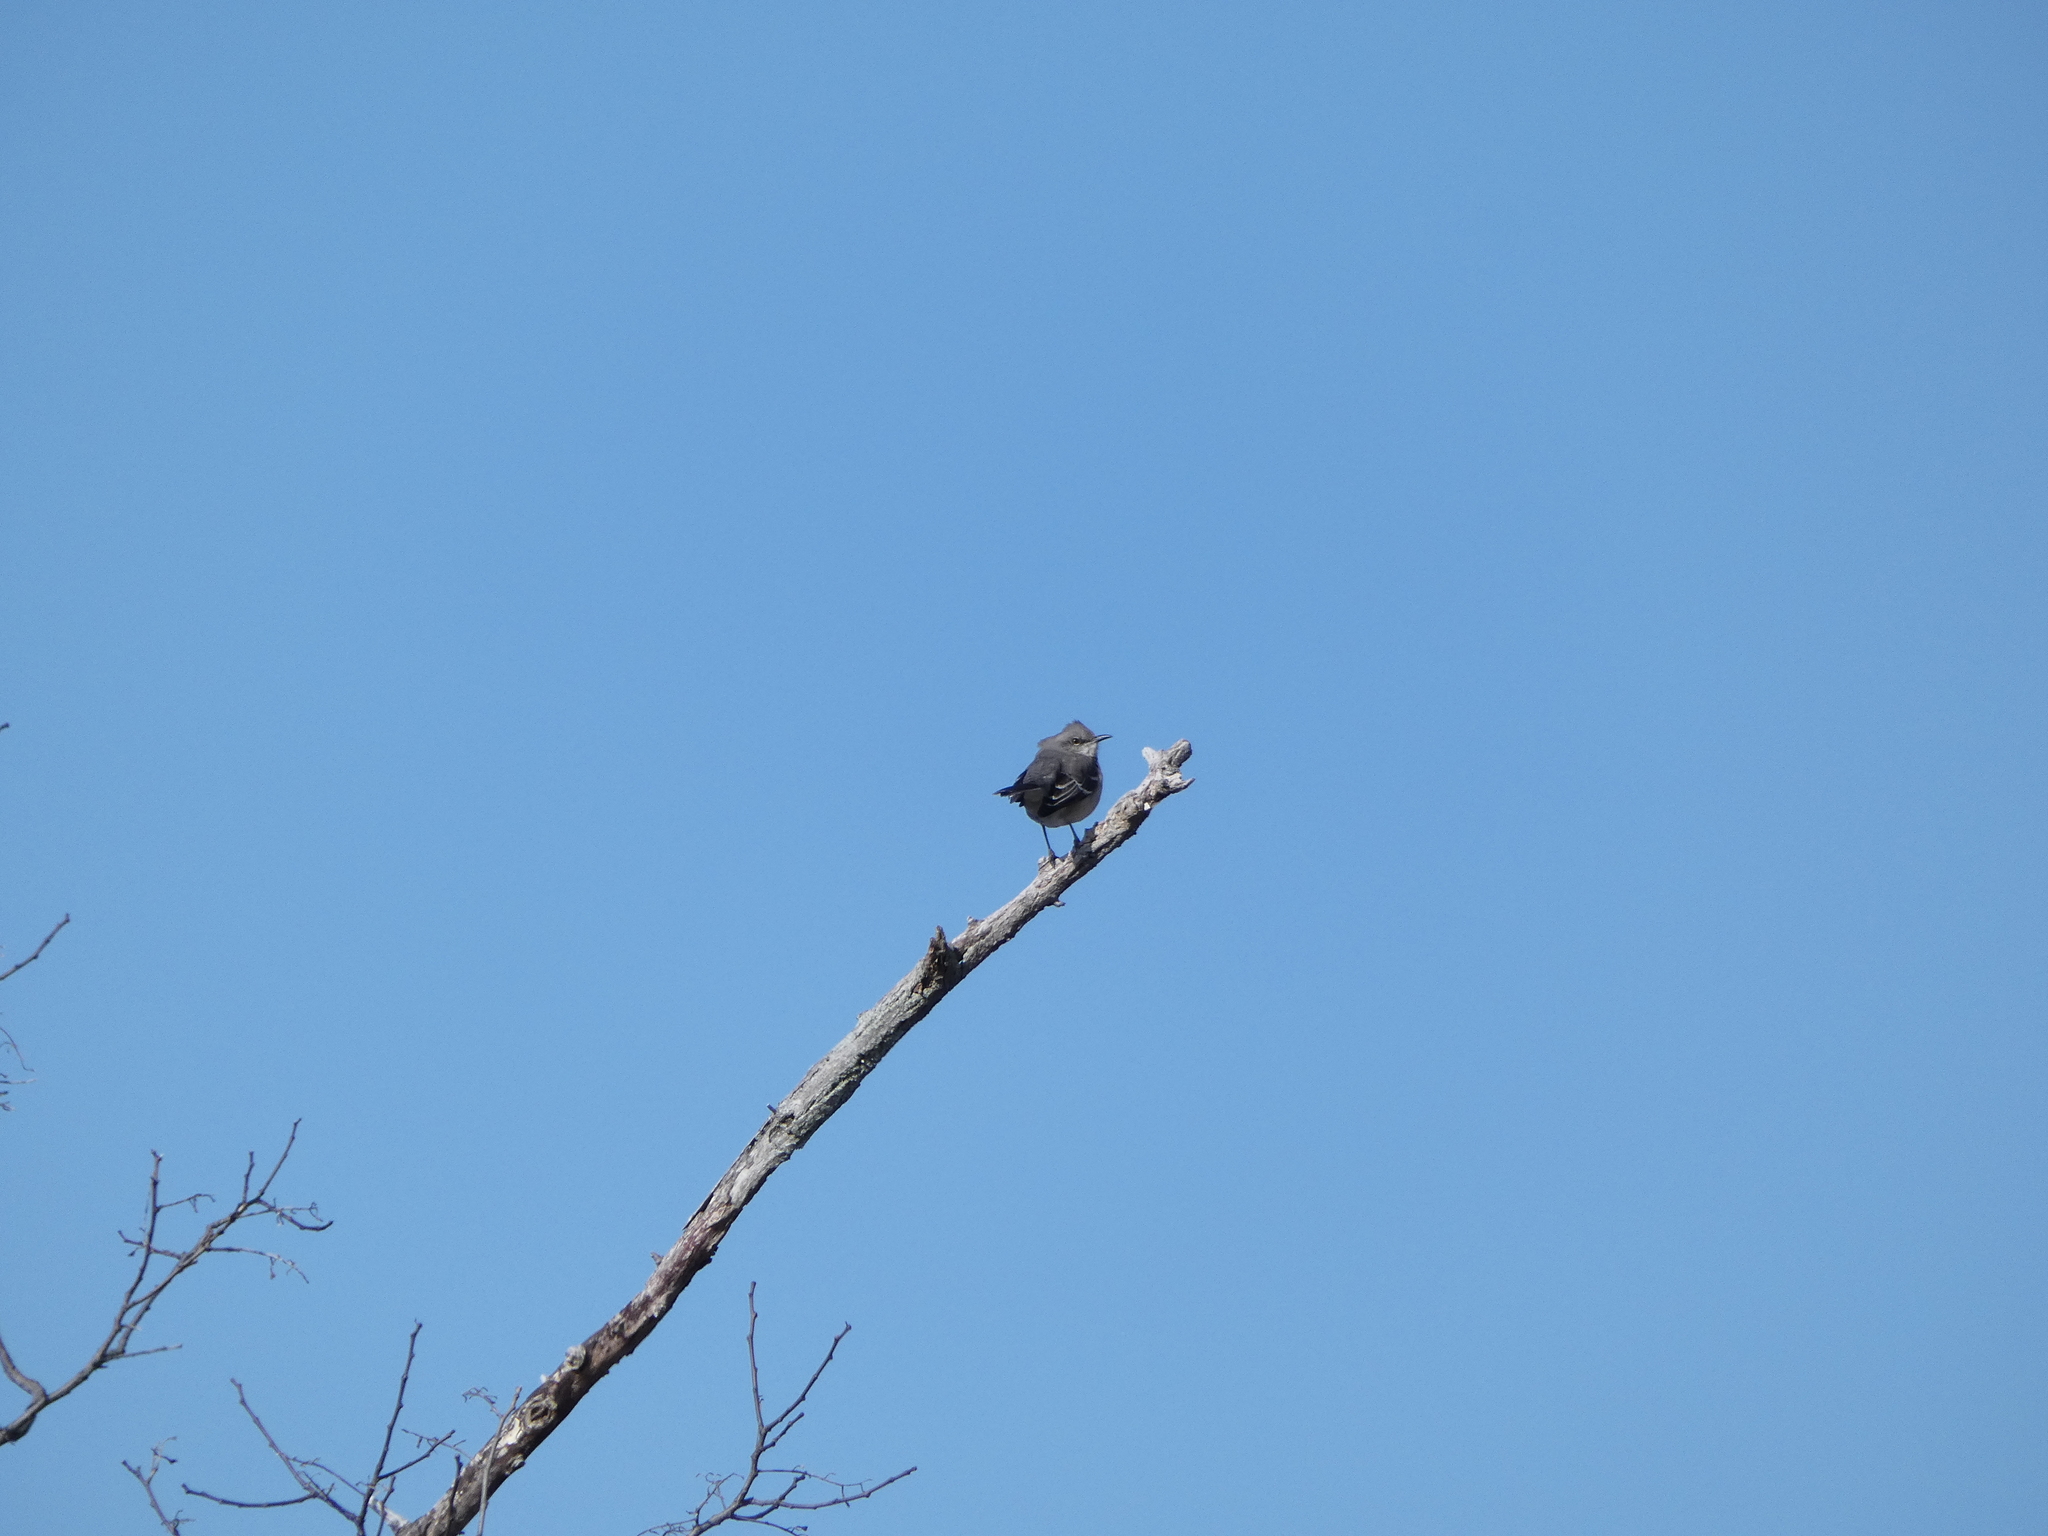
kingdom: Animalia
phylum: Chordata
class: Aves
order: Passeriformes
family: Mimidae
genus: Mimus
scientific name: Mimus polyglottos
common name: Northern mockingbird
